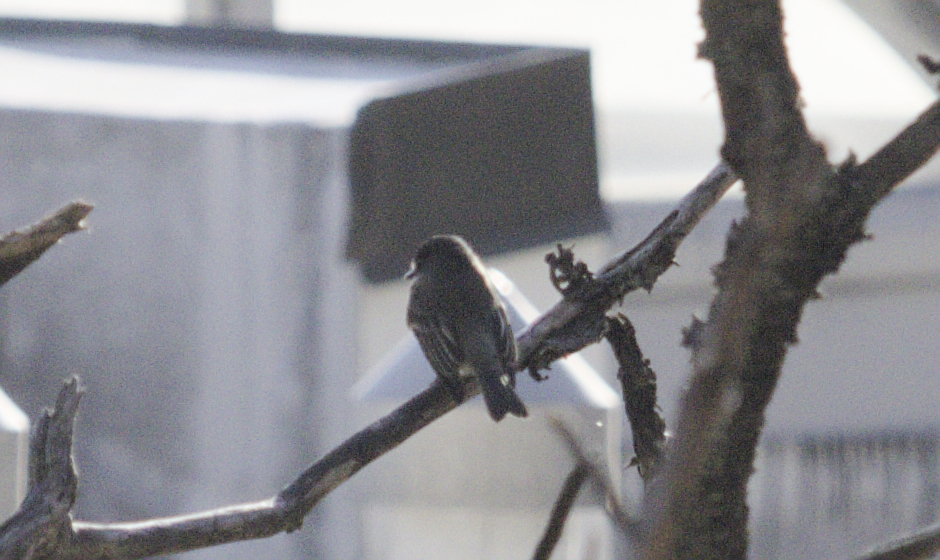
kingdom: Animalia
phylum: Chordata
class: Aves
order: Passeriformes
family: Tyrannidae
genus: Sayornis
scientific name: Sayornis phoebe
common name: Eastern phoebe
